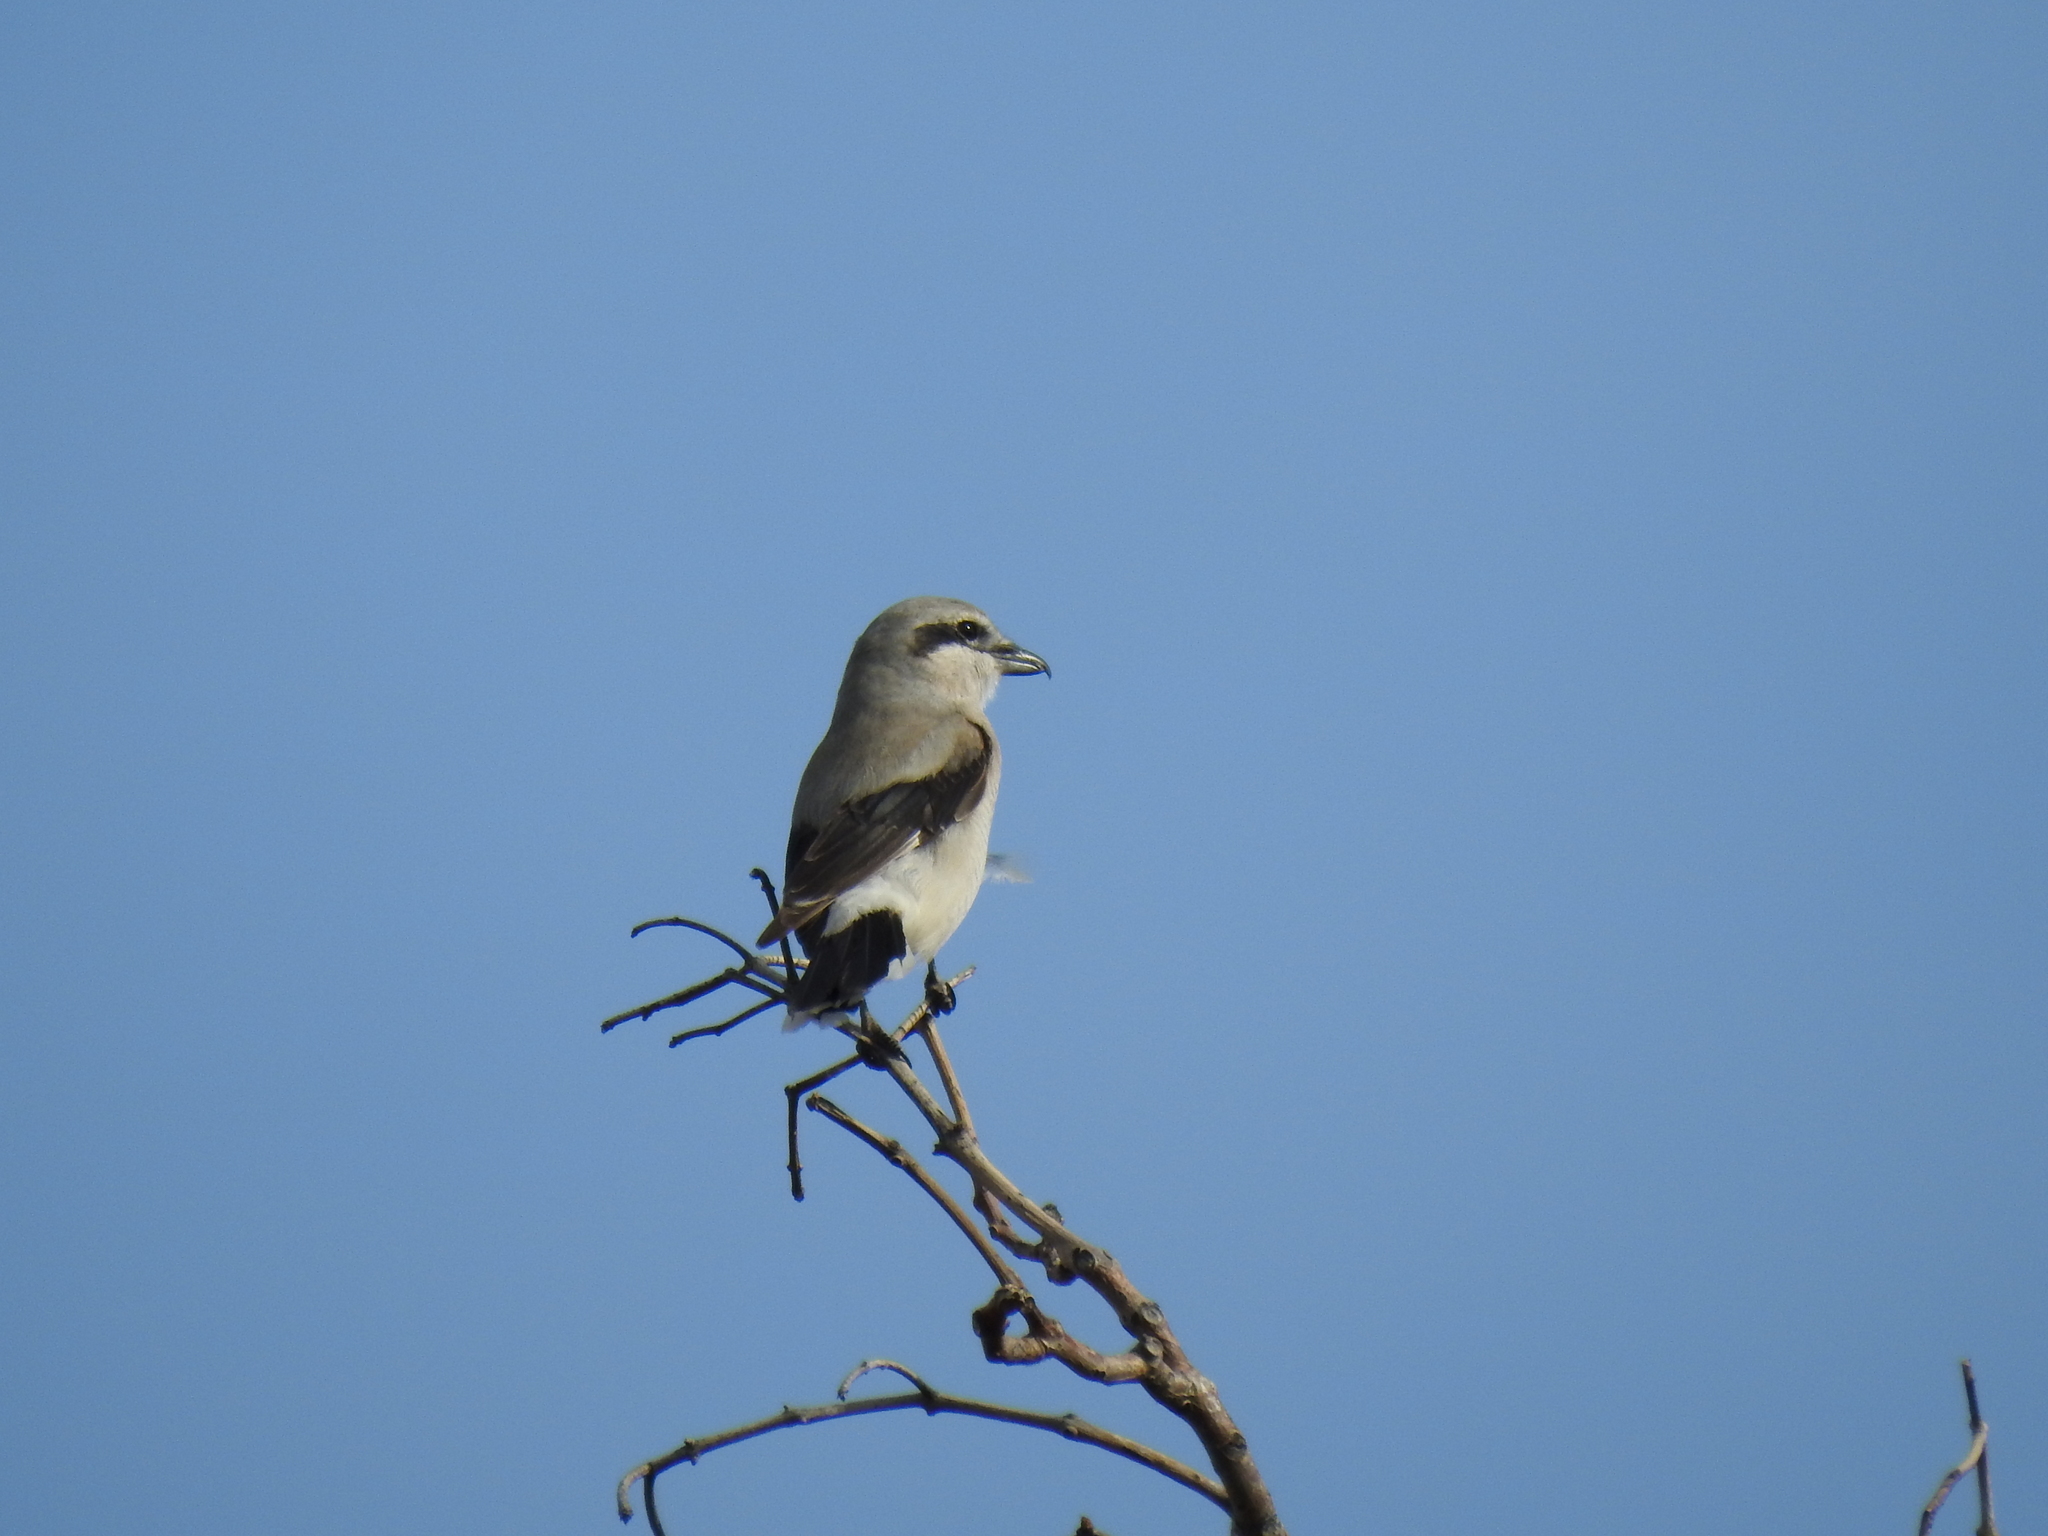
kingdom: Animalia
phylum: Chordata
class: Aves
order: Passeriformes
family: Laniidae
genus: Lanius
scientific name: Lanius borealis
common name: Northern shrike
